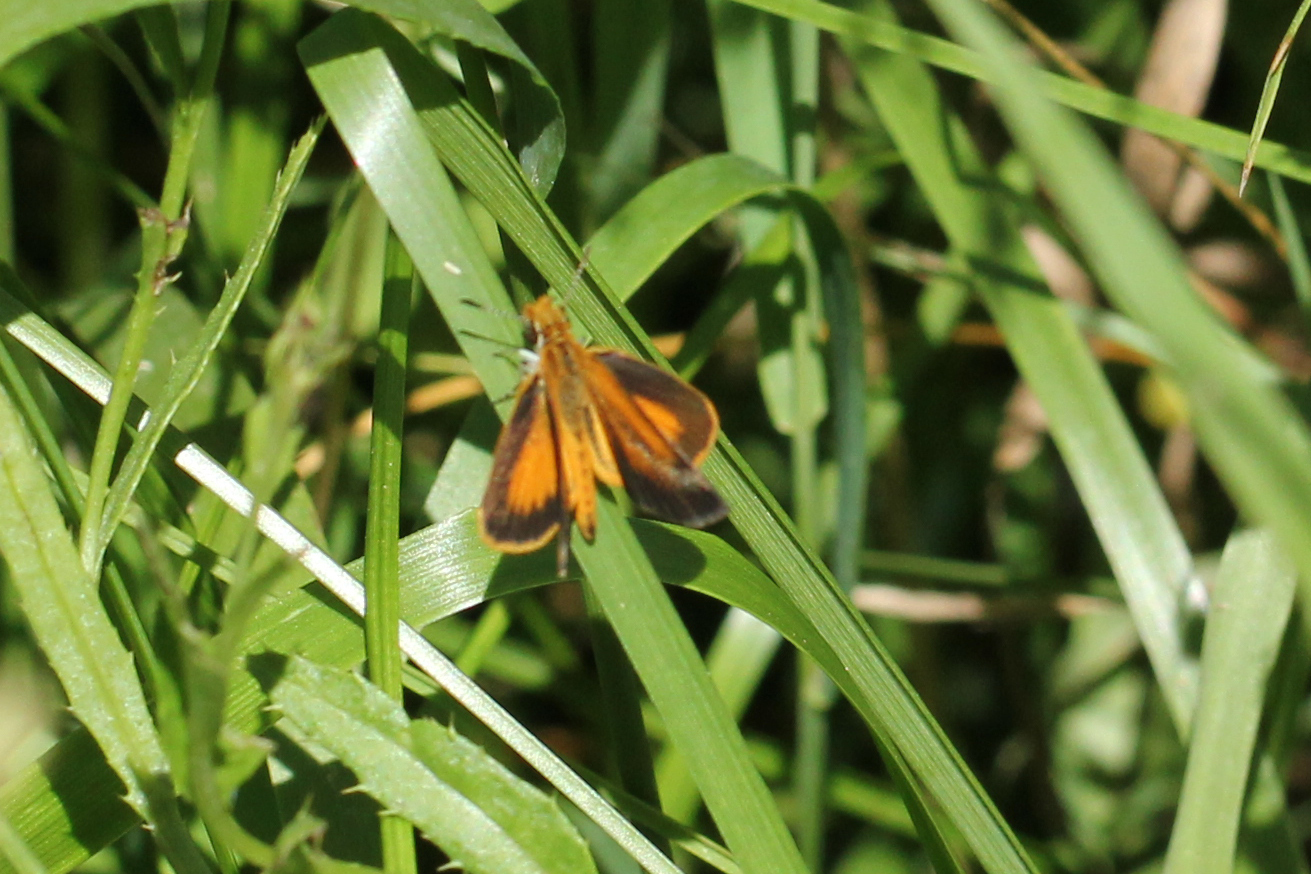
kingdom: Animalia
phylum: Arthropoda
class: Insecta
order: Lepidoptera
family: Hesperiidae
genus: Ancyloxypha
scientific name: Ancyloxypha numitor
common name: Least skipper
